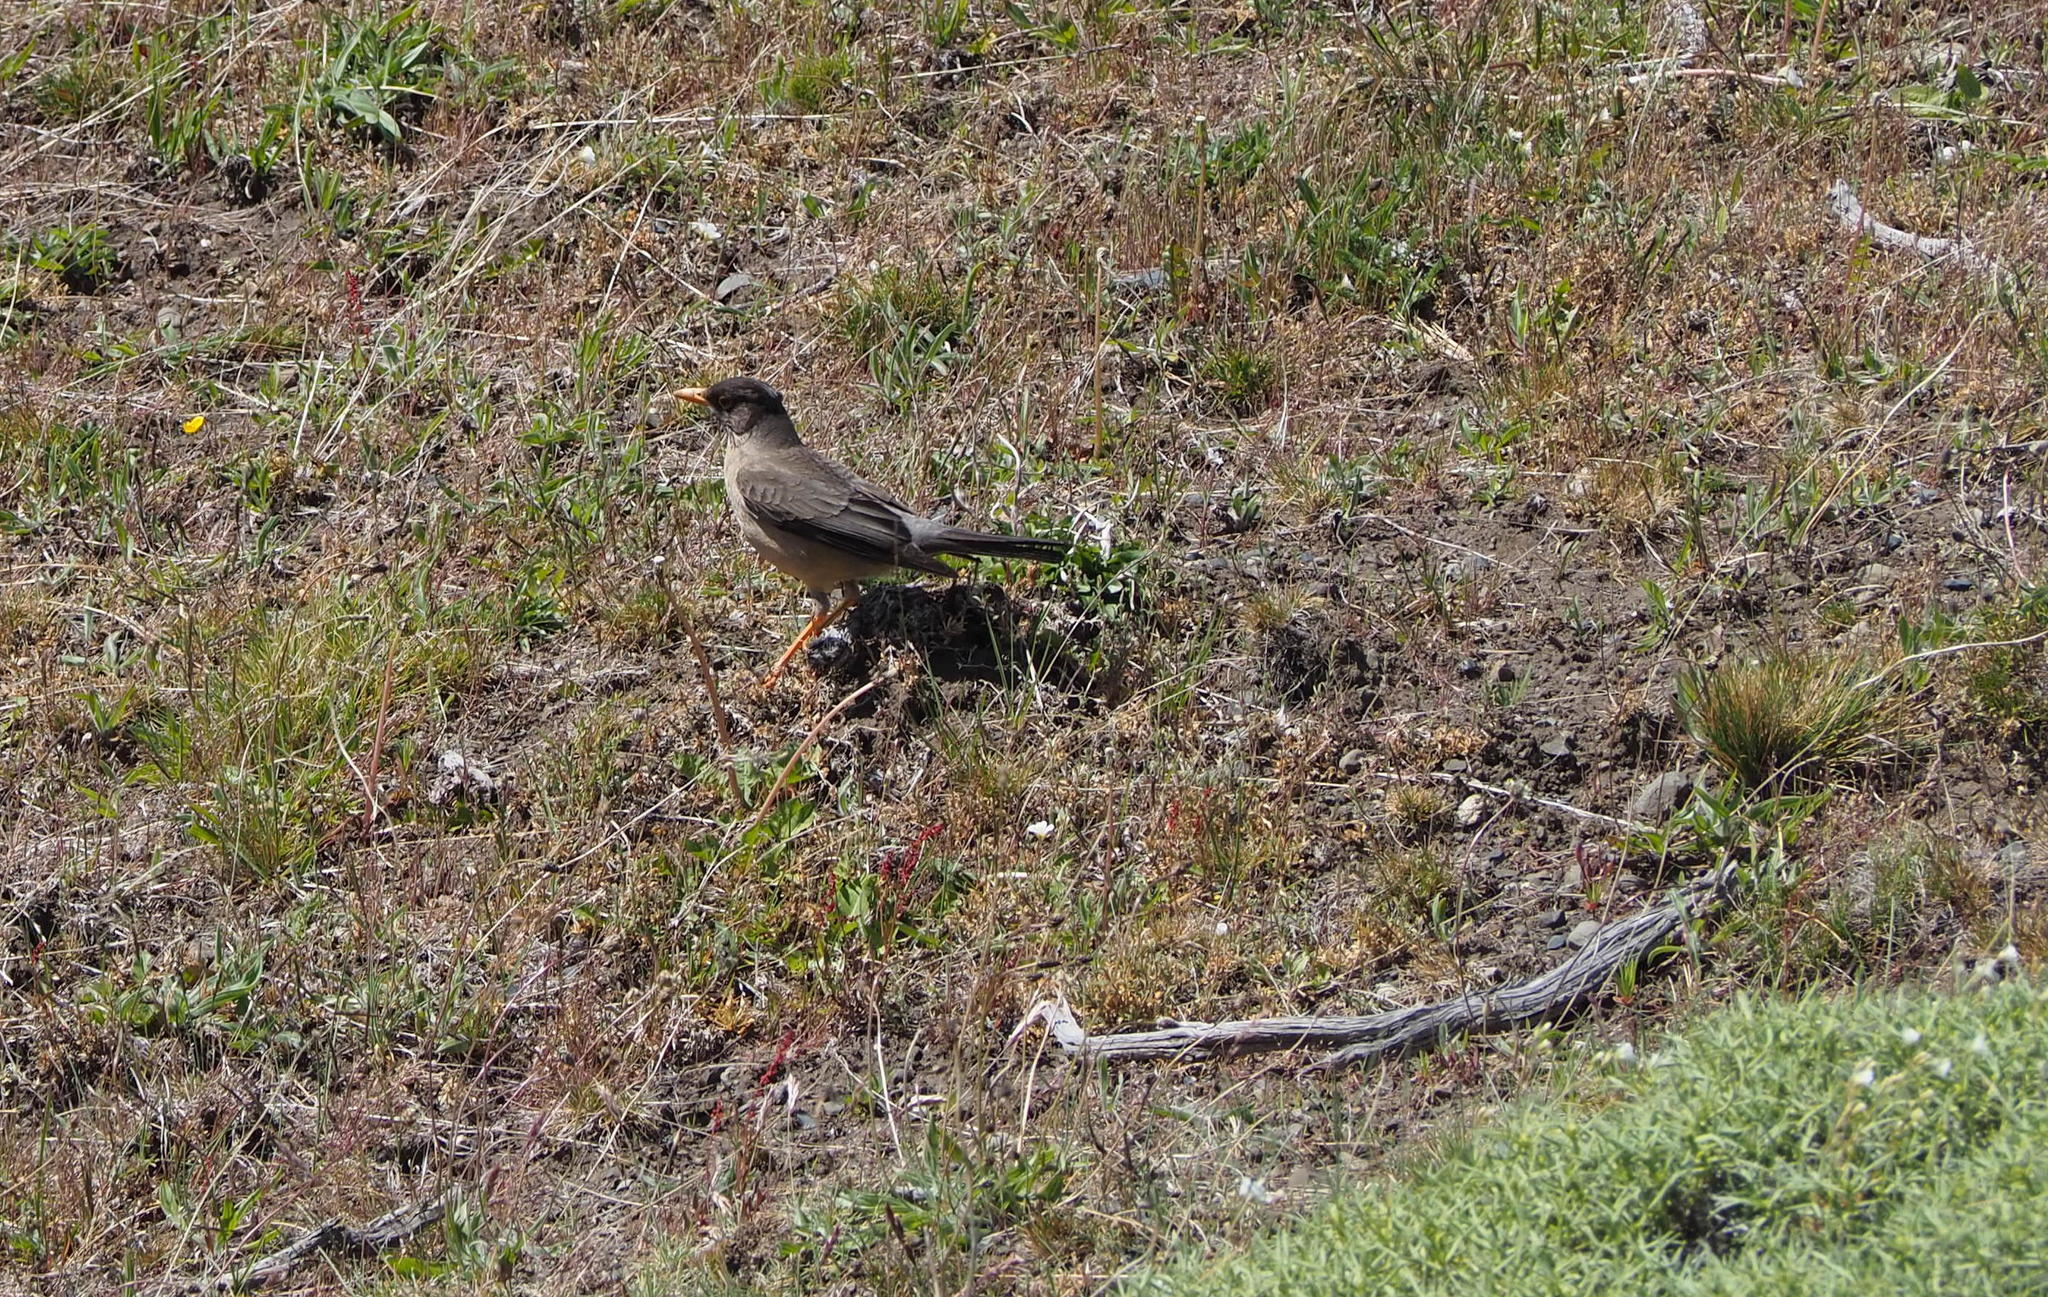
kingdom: Animalia
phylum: Chordata
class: Aves
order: Passeriformes
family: Turdidae
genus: Turdus
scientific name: Turdus falcklandii
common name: Austral thrush
